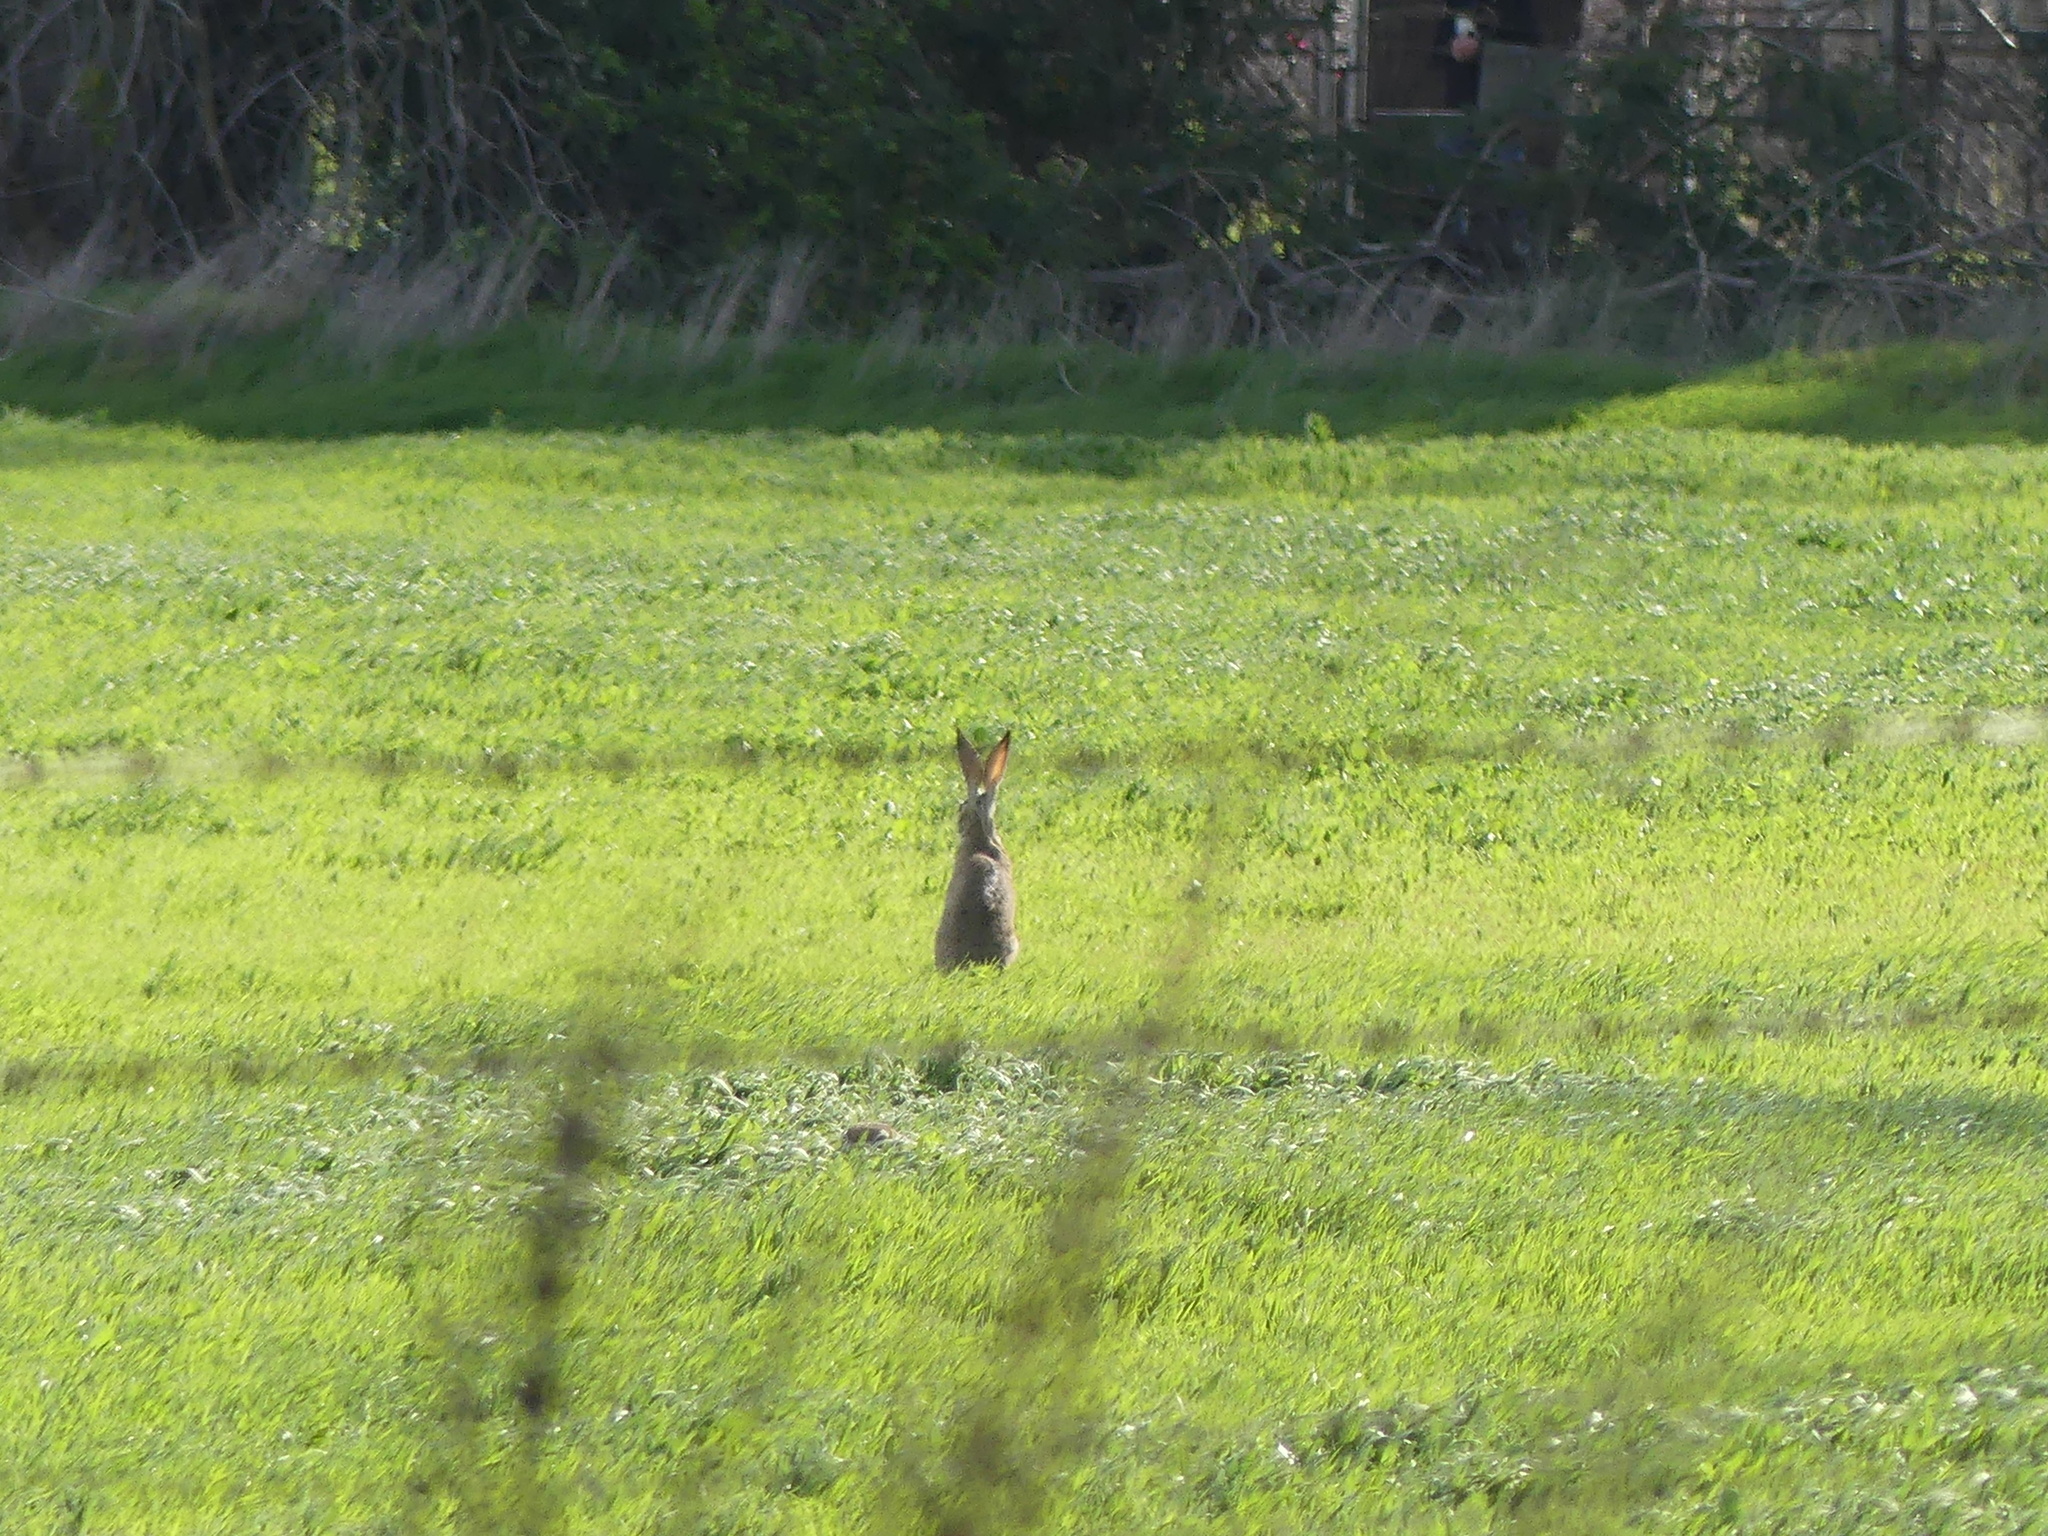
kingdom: Animalia
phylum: Chordata
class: Mammalia
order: Lagomorpha
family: Leporidae
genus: Lepus
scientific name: Lepus californicus
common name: Black-tailed jackrabbit
